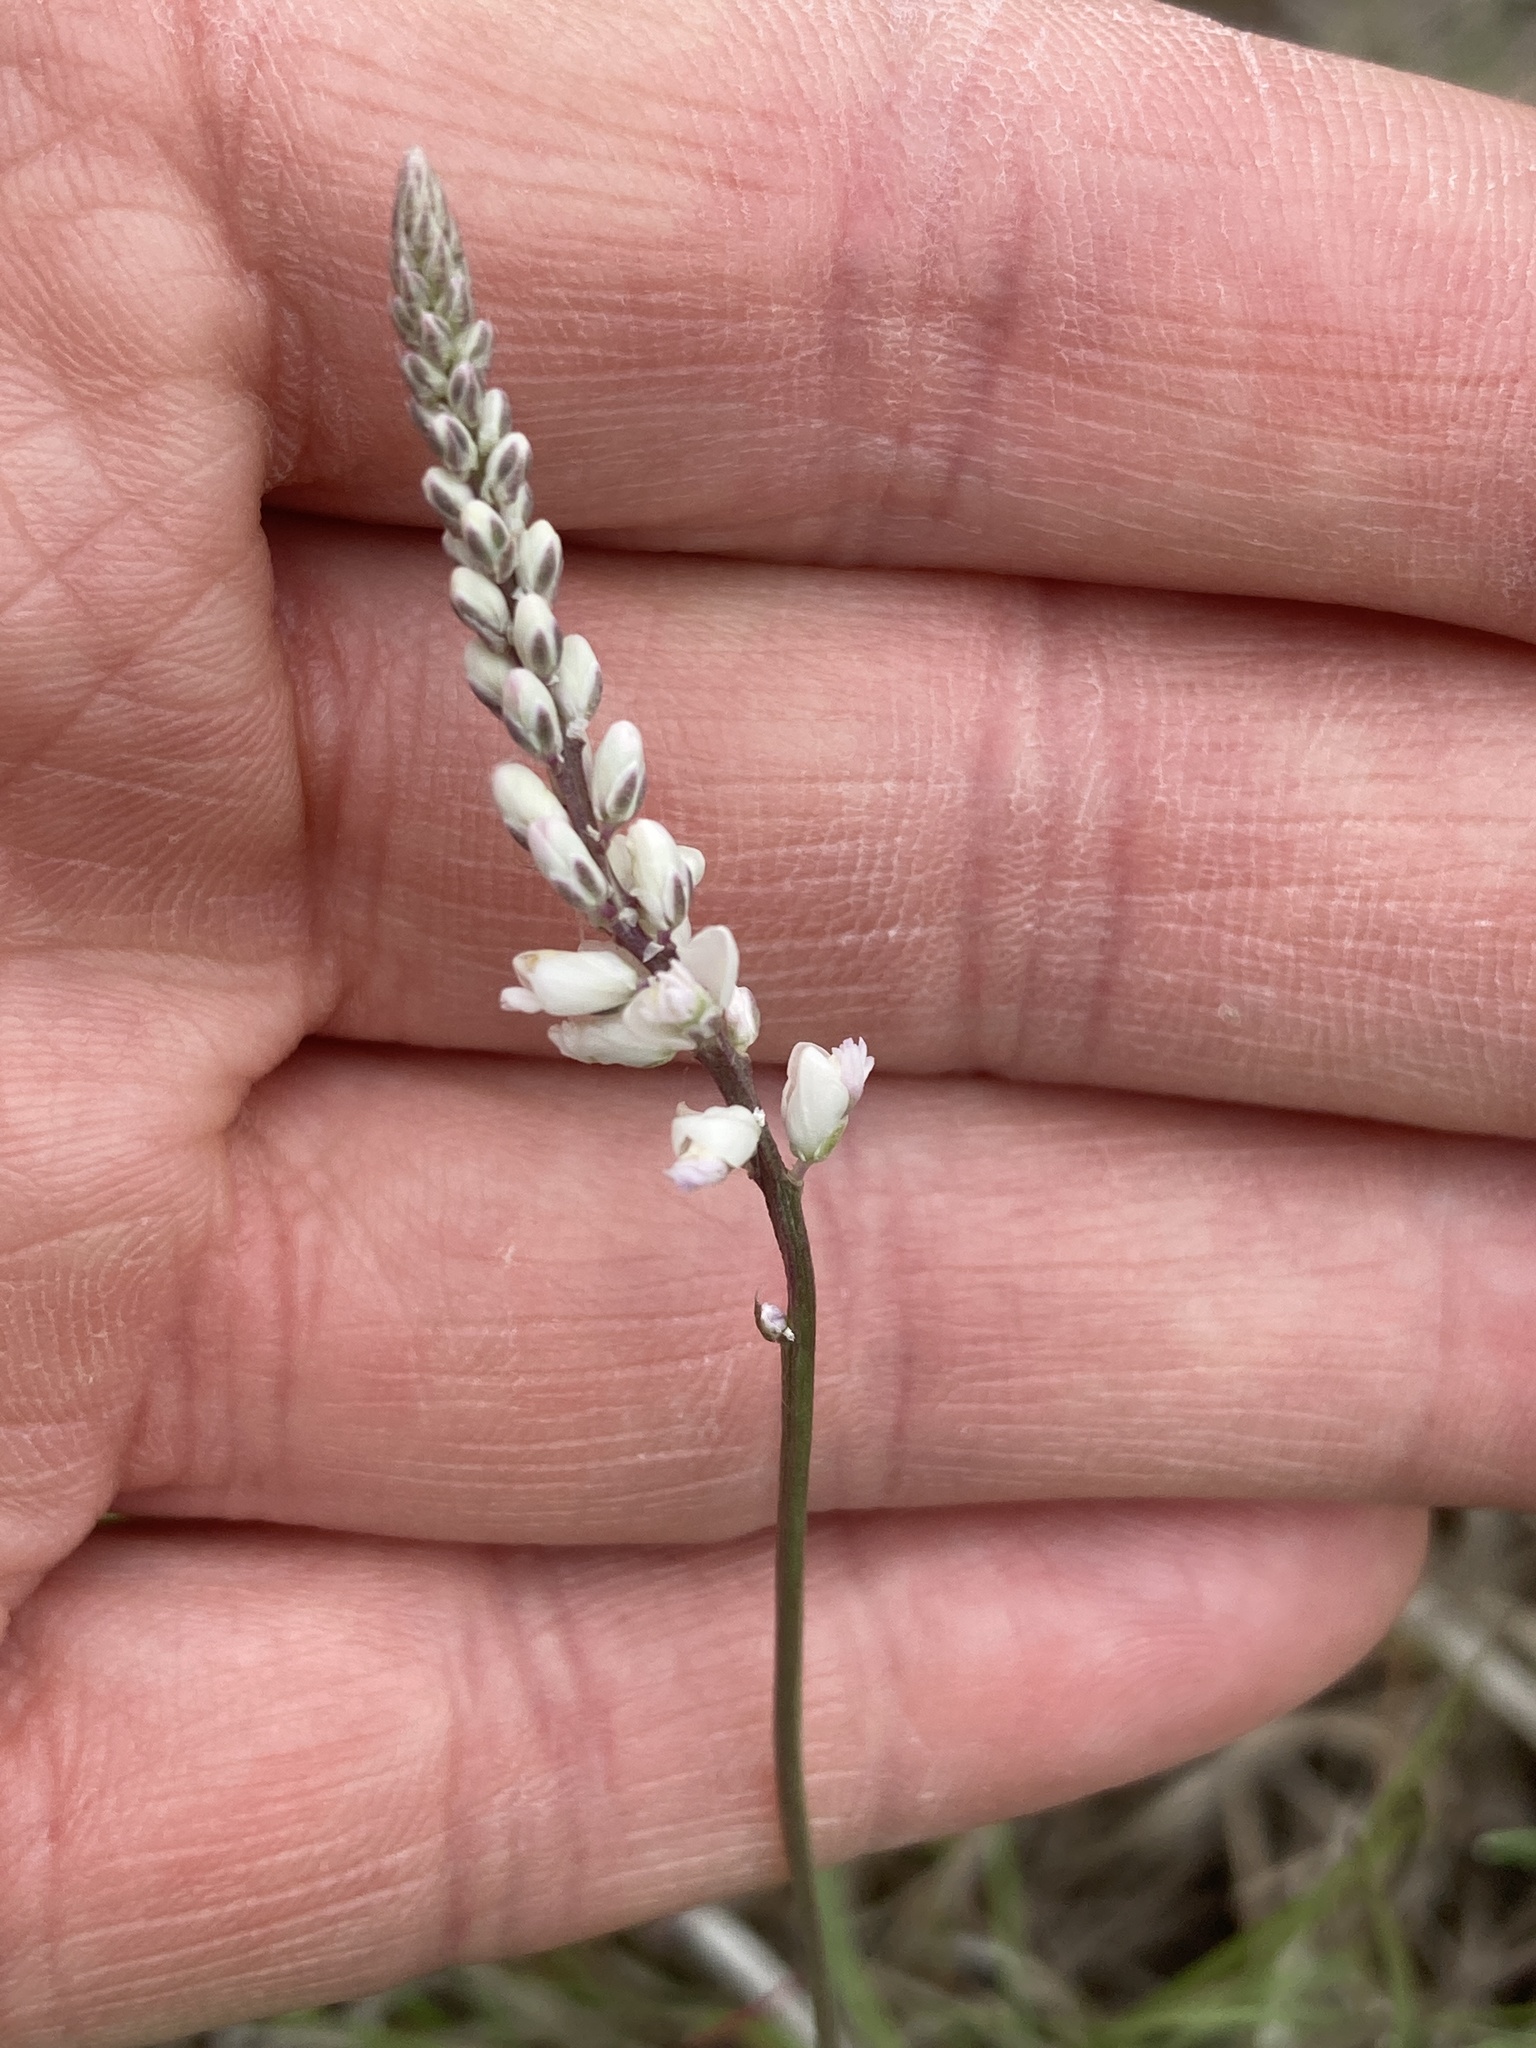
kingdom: Plantae
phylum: Tracheophyta
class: Magnoliopsida
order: Fabales
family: Polygalaceae
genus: Polygala
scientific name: Polygala alba
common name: White milkwort
